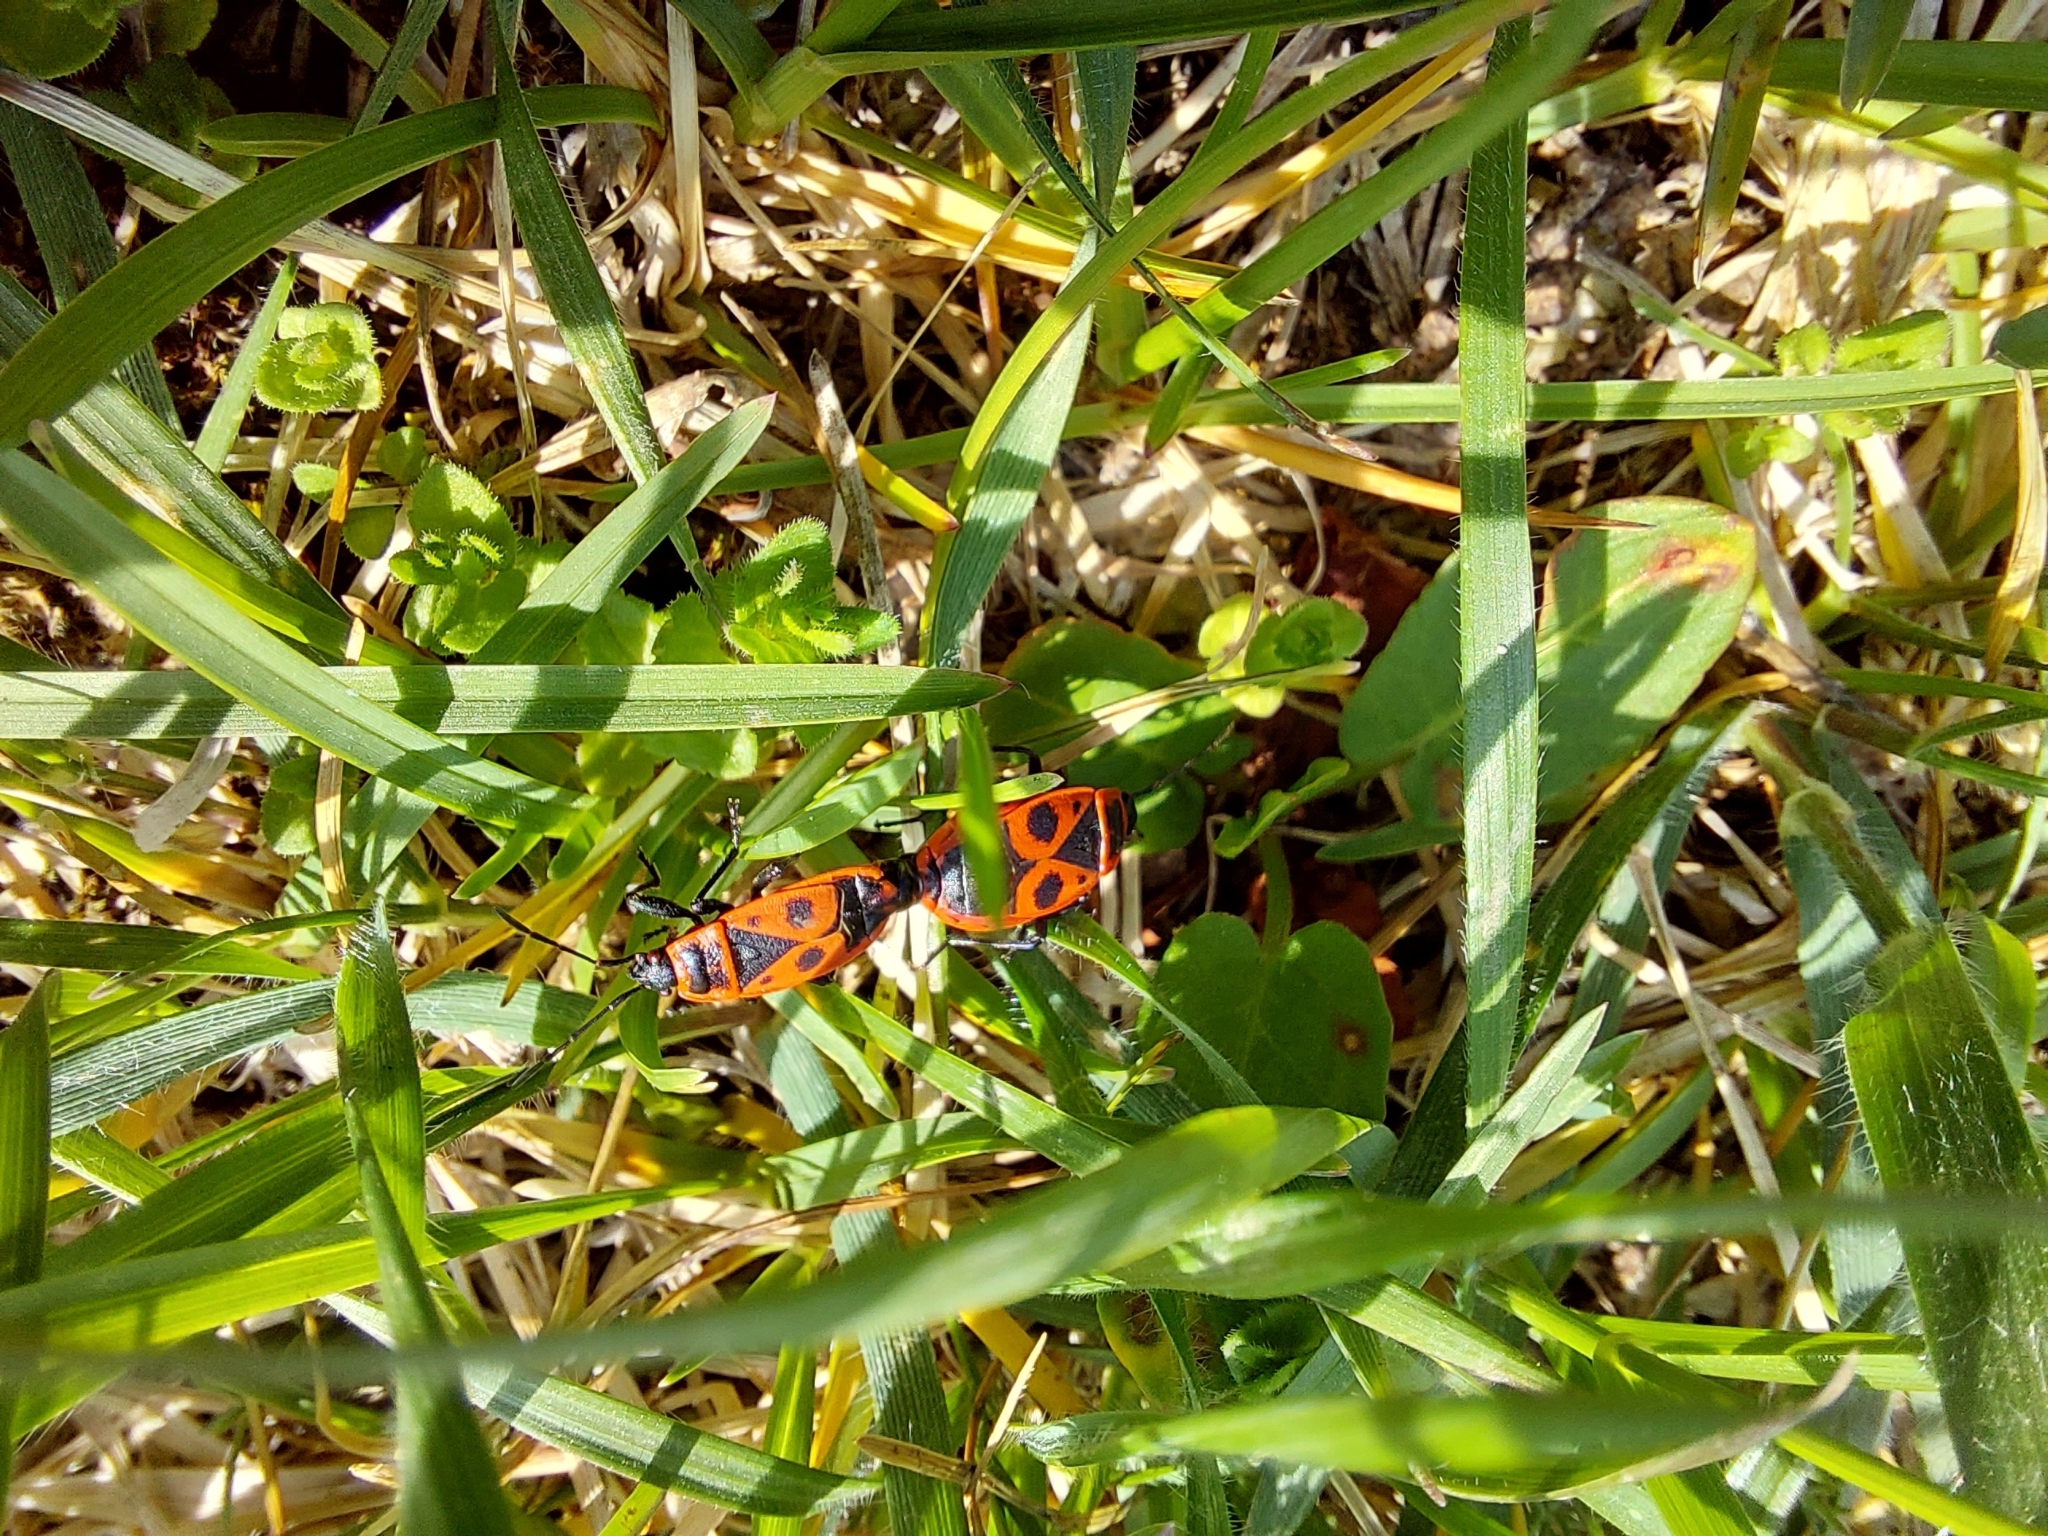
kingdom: Animalia
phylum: Arthropoda
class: Insecta
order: Hemiptera
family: Pyrrhocoridae
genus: Pyrrhocoris
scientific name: Pyrrhocoris apterus
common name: Firebug
